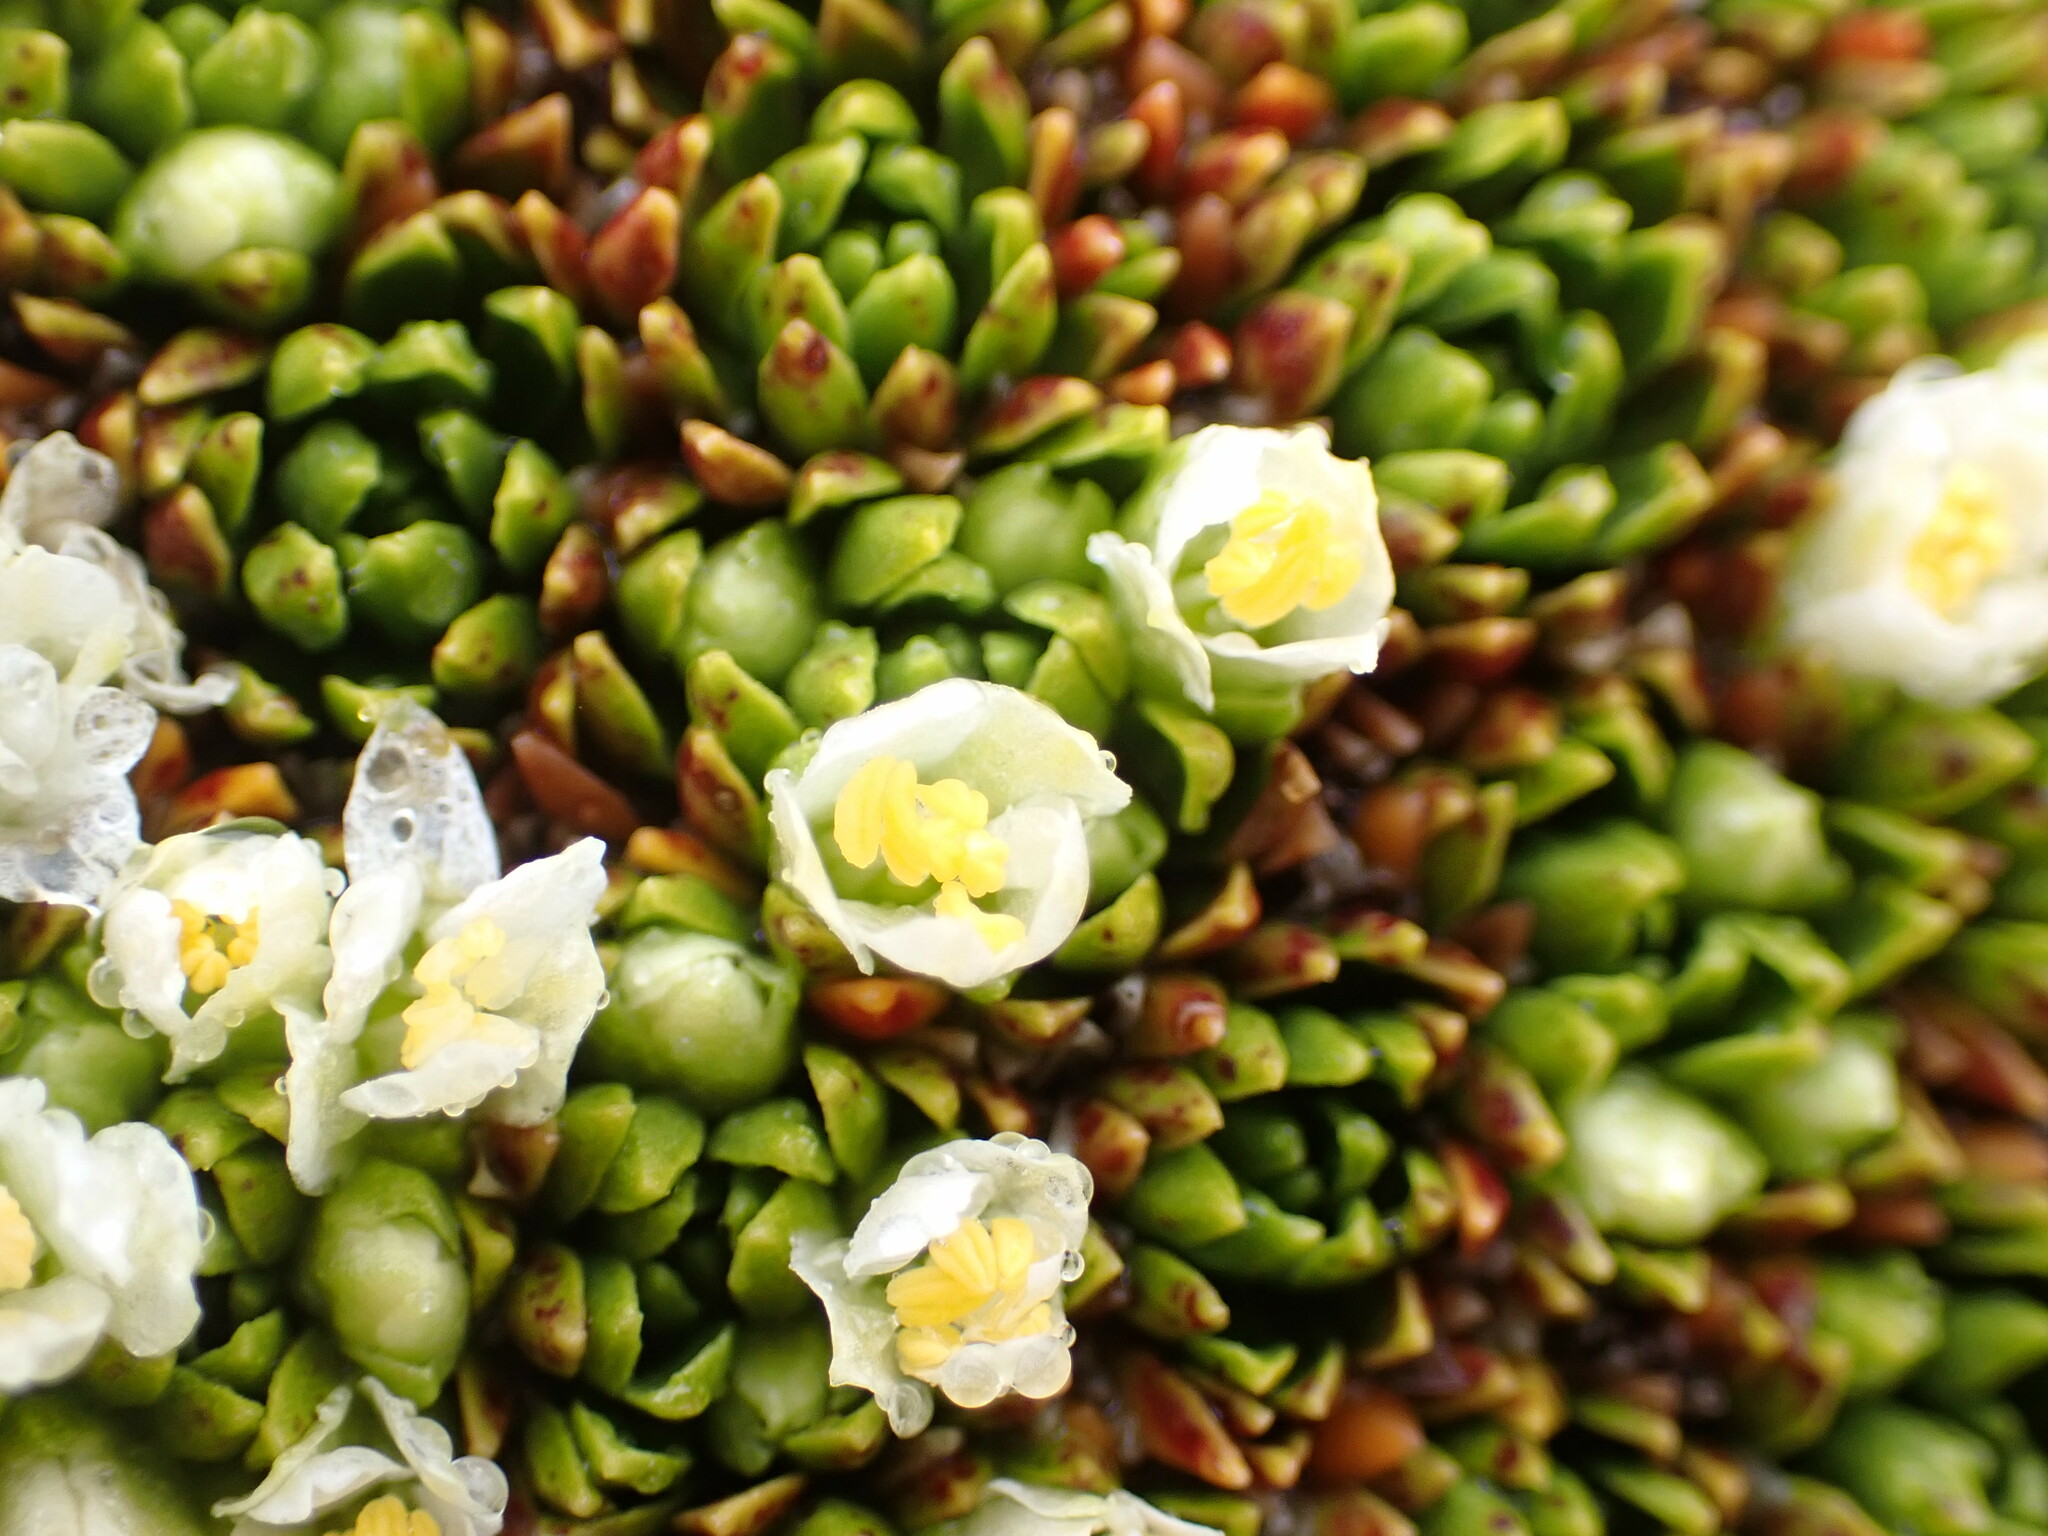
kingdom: Plantae
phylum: Tracheophyta
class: Magnoliopsida
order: Caryophyllales
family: Montiaceae
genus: Hectorella
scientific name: Hectorella caespitosa
